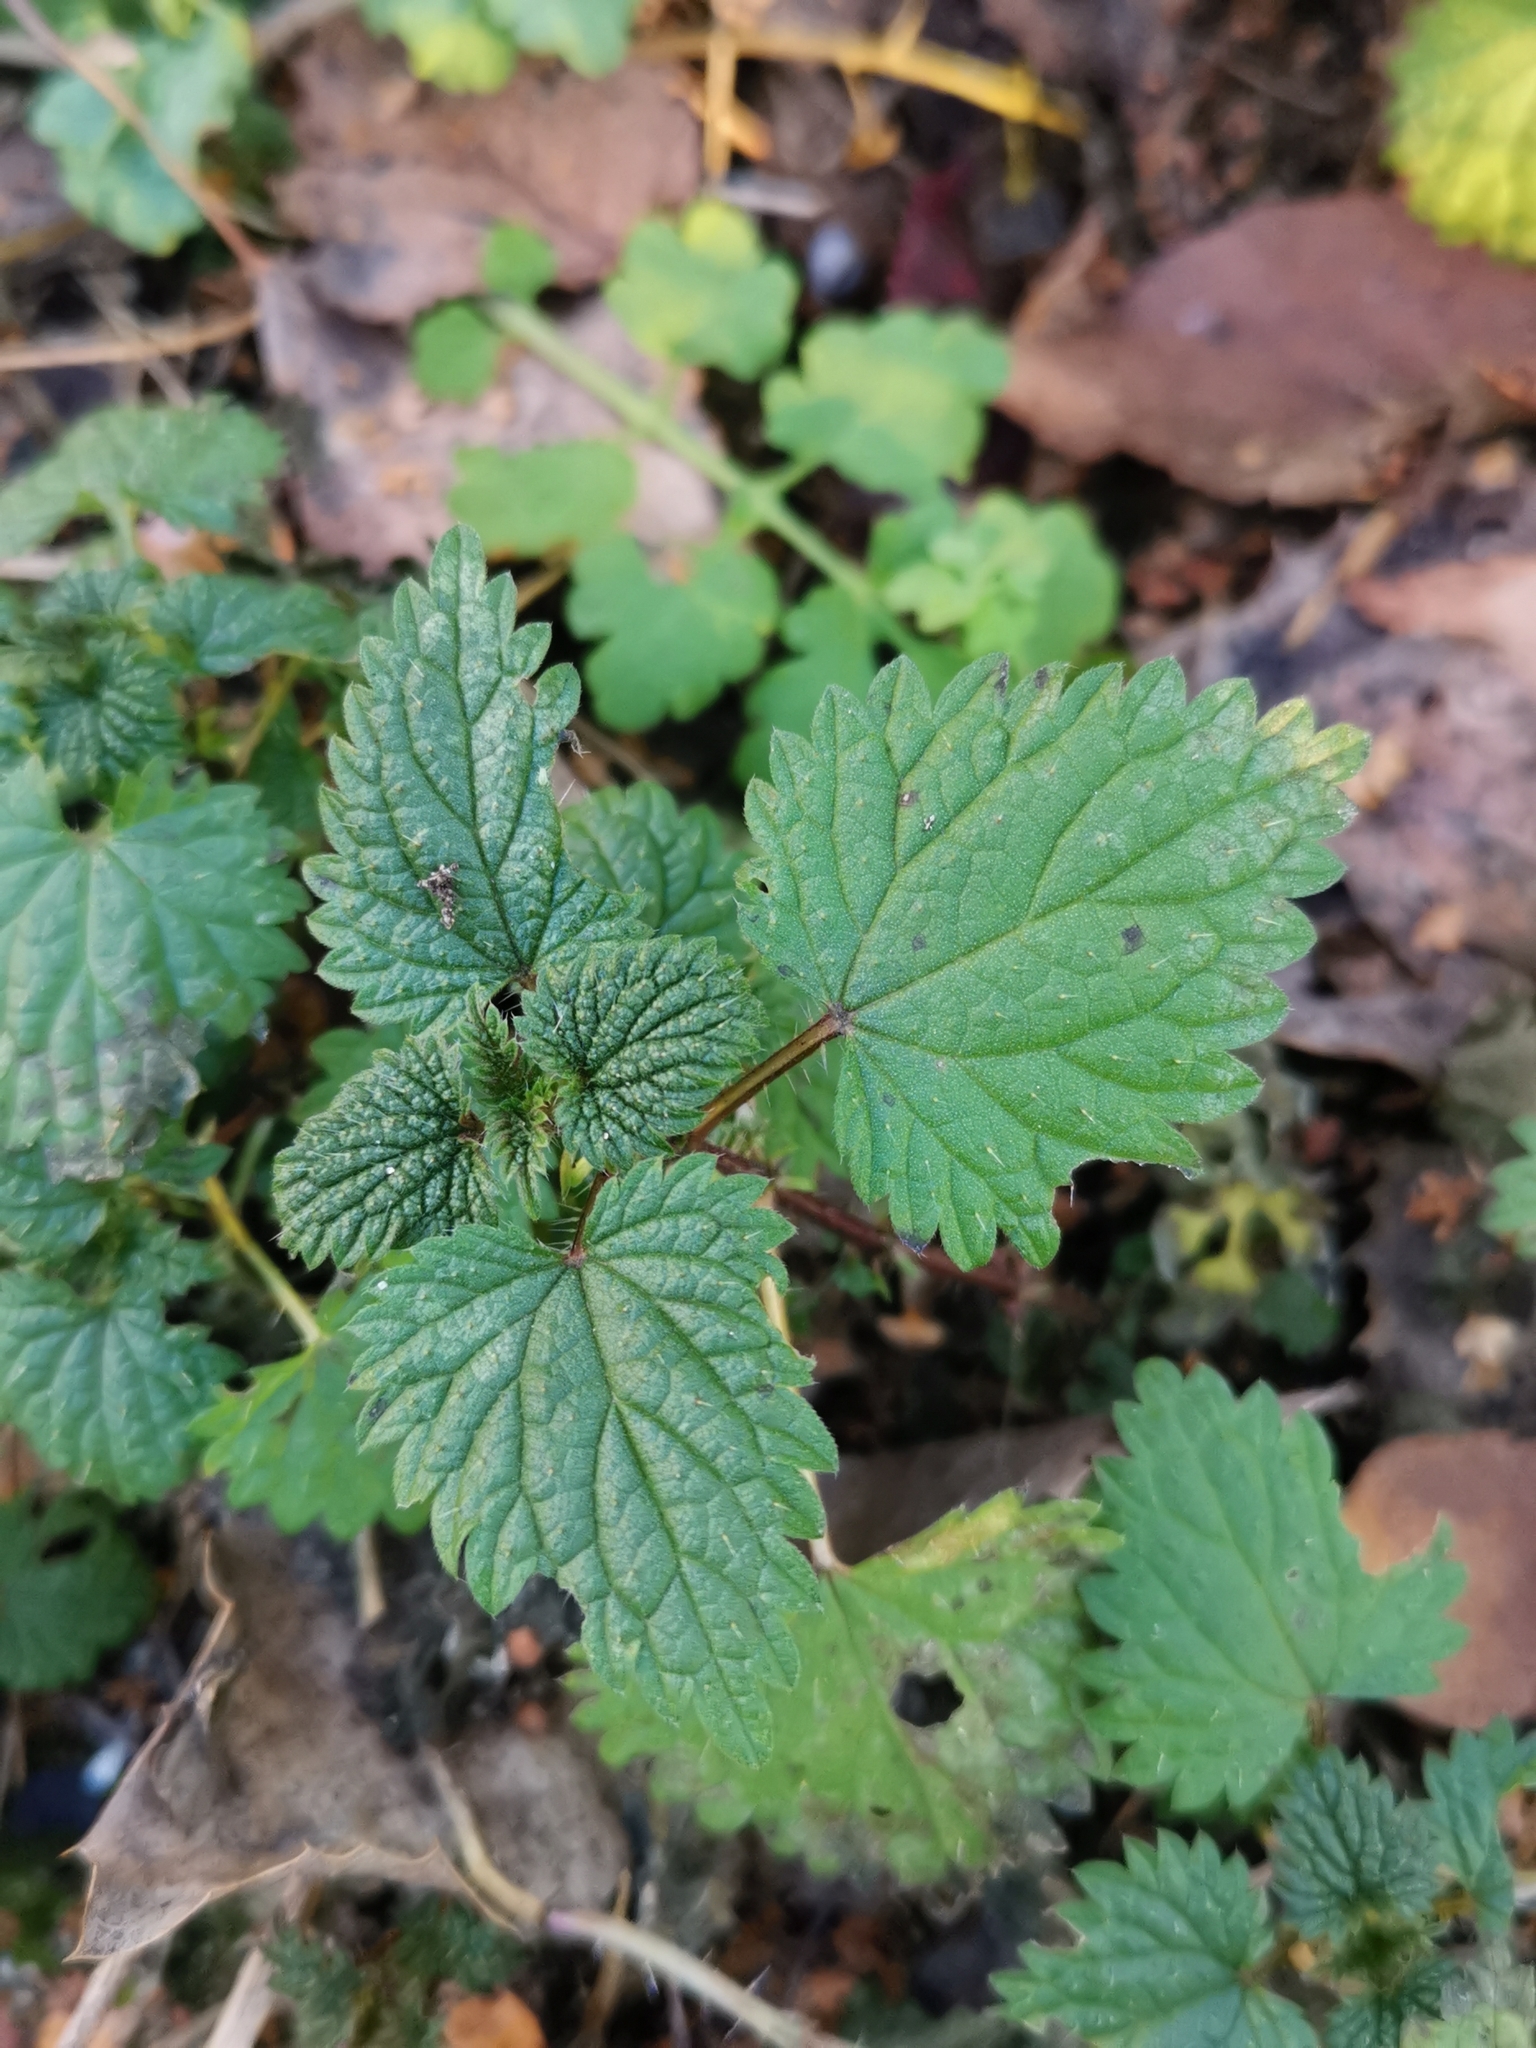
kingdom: Plantae
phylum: Tracheophyta
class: Magnoliopsida
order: Rosales
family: Urticaceae
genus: Urtica
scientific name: Urtica dioica
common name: Common nettle
